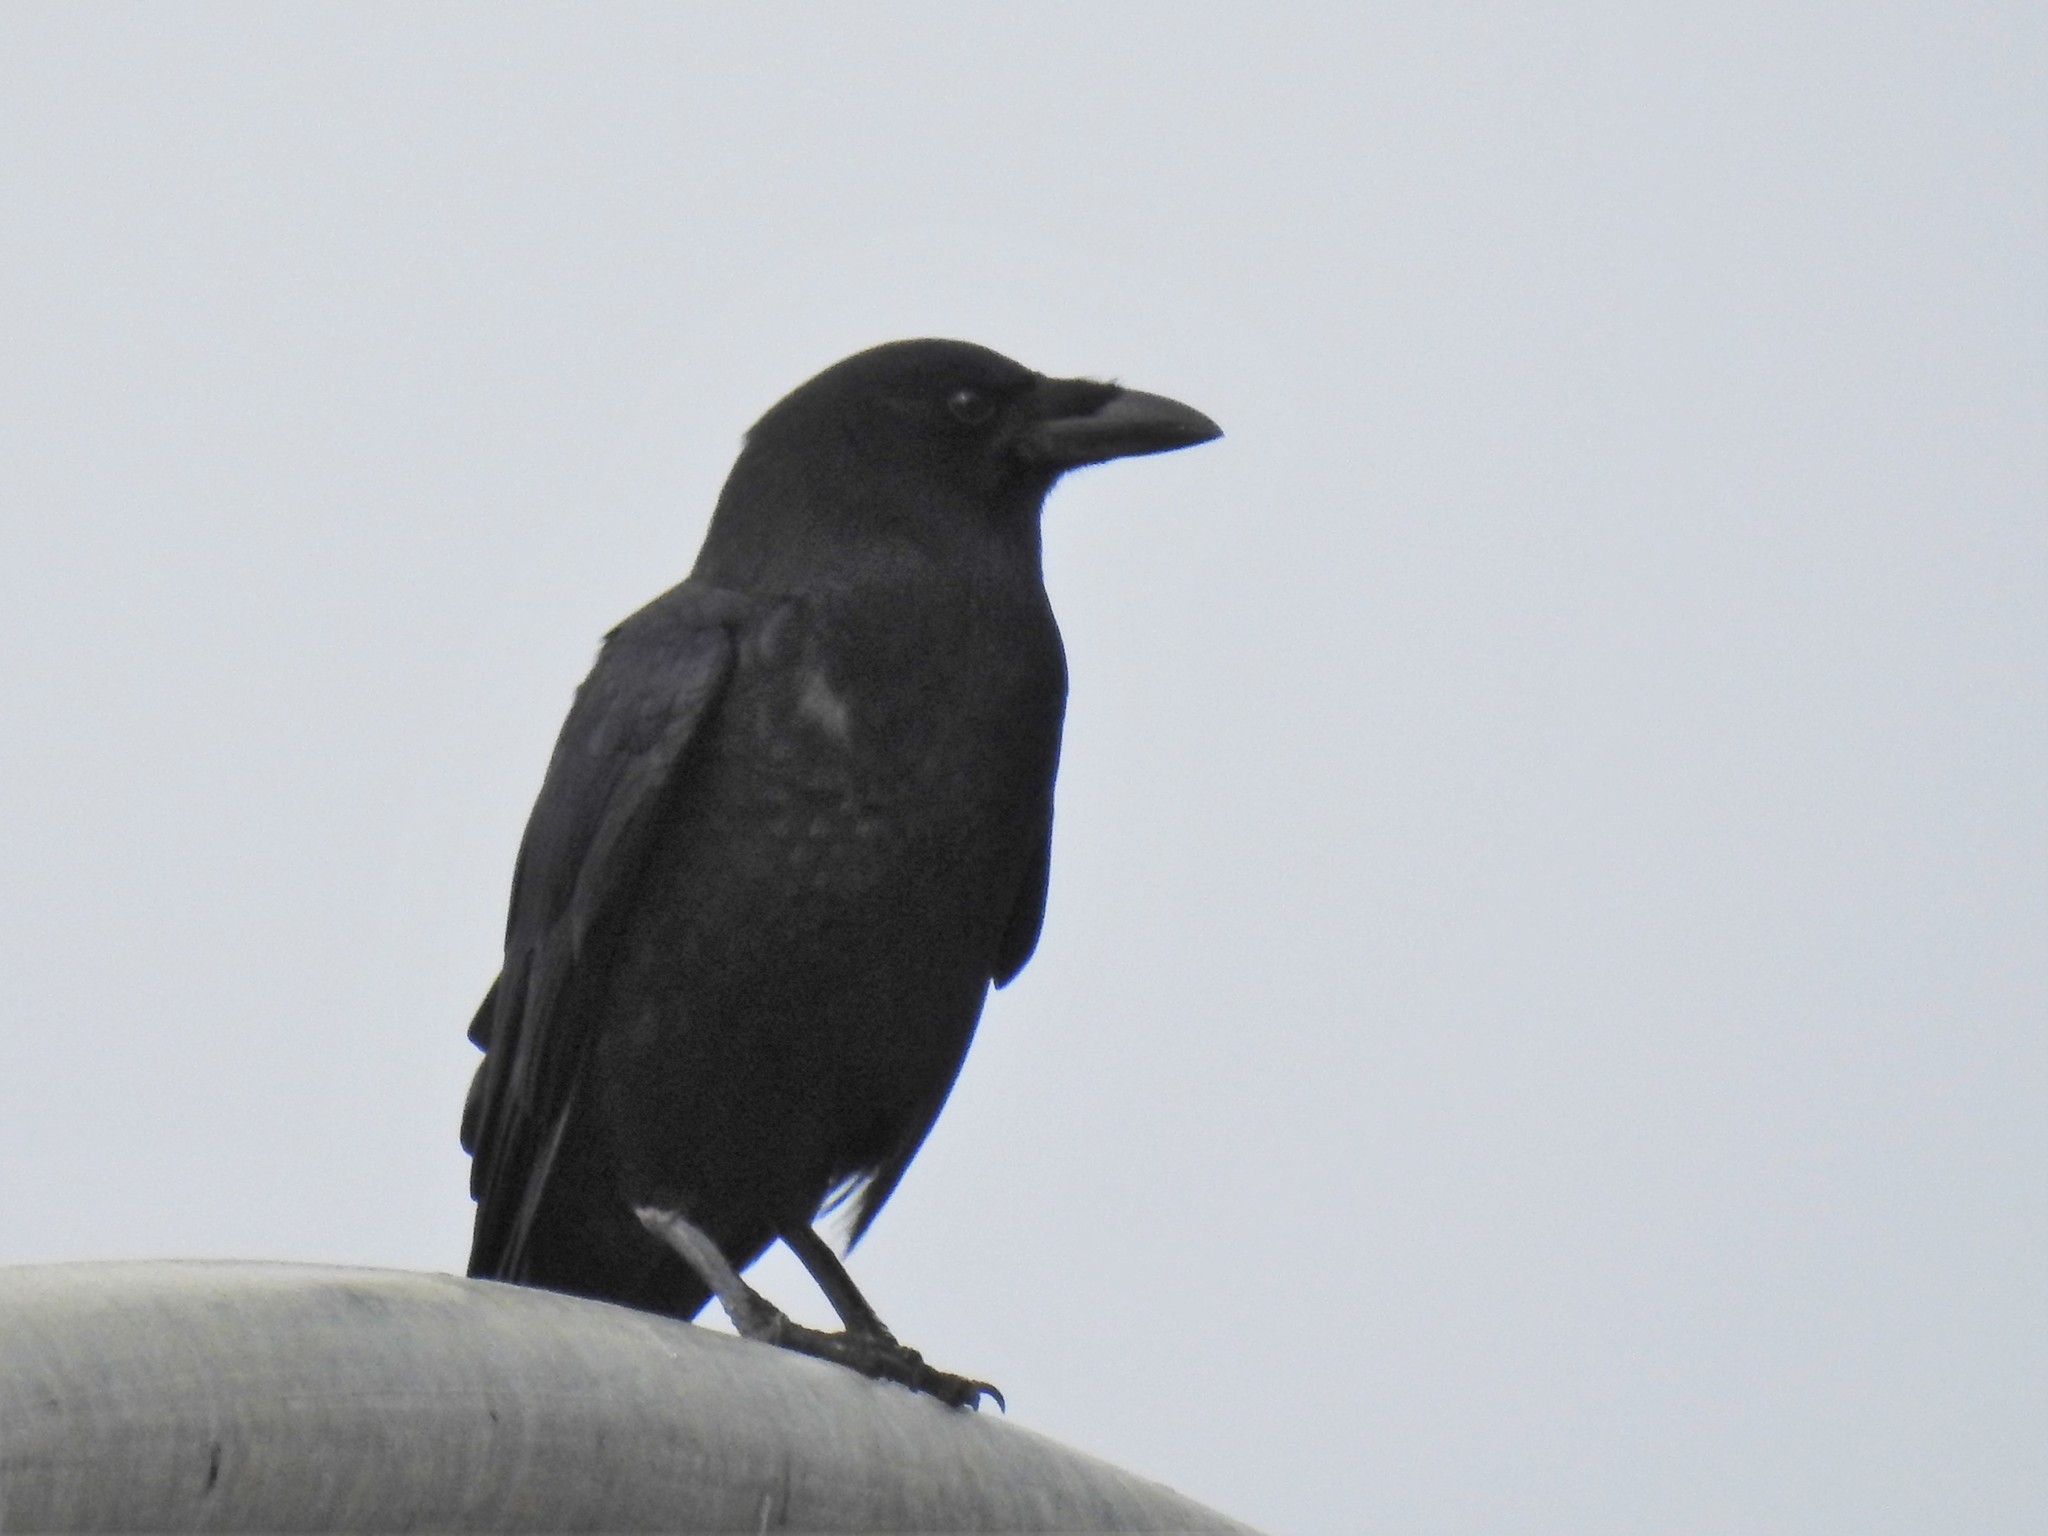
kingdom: Animalia
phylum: Chordata
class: Aves
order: Passeriformes
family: Corvidae
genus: Corvus
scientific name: Corvus brachyrhynchos
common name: American crow
